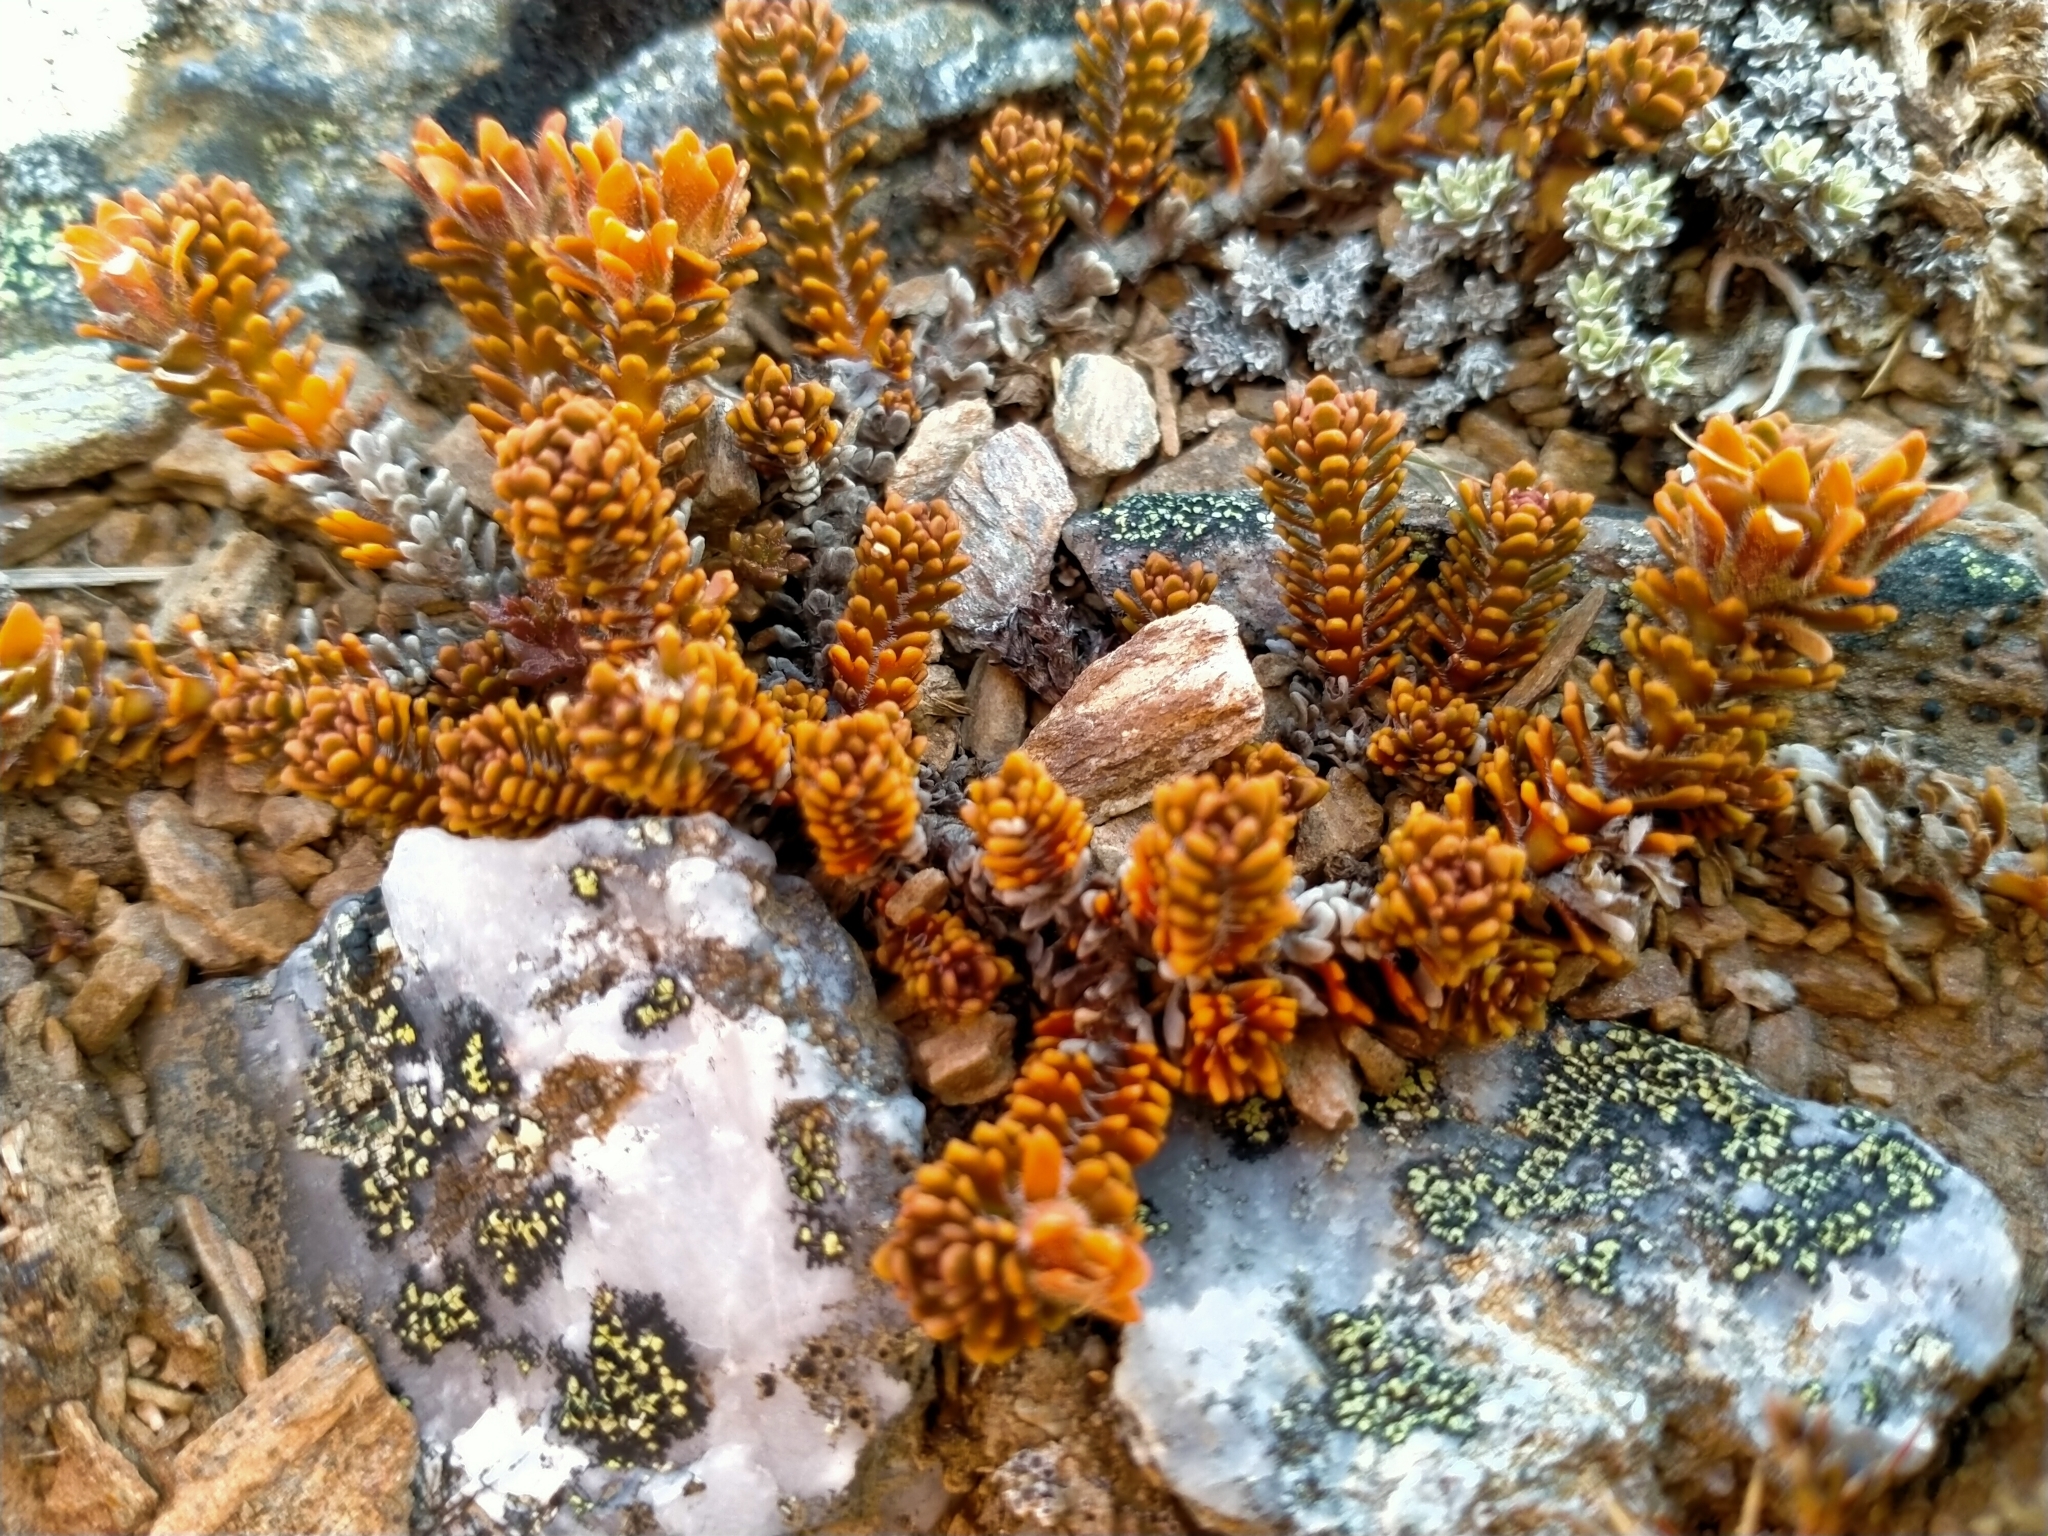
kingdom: Plantae
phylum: Tracheophyta
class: Magnoliopsida
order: Lamiales
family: Plantaginaceae
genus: Veronica
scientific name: Veronica densifolia
